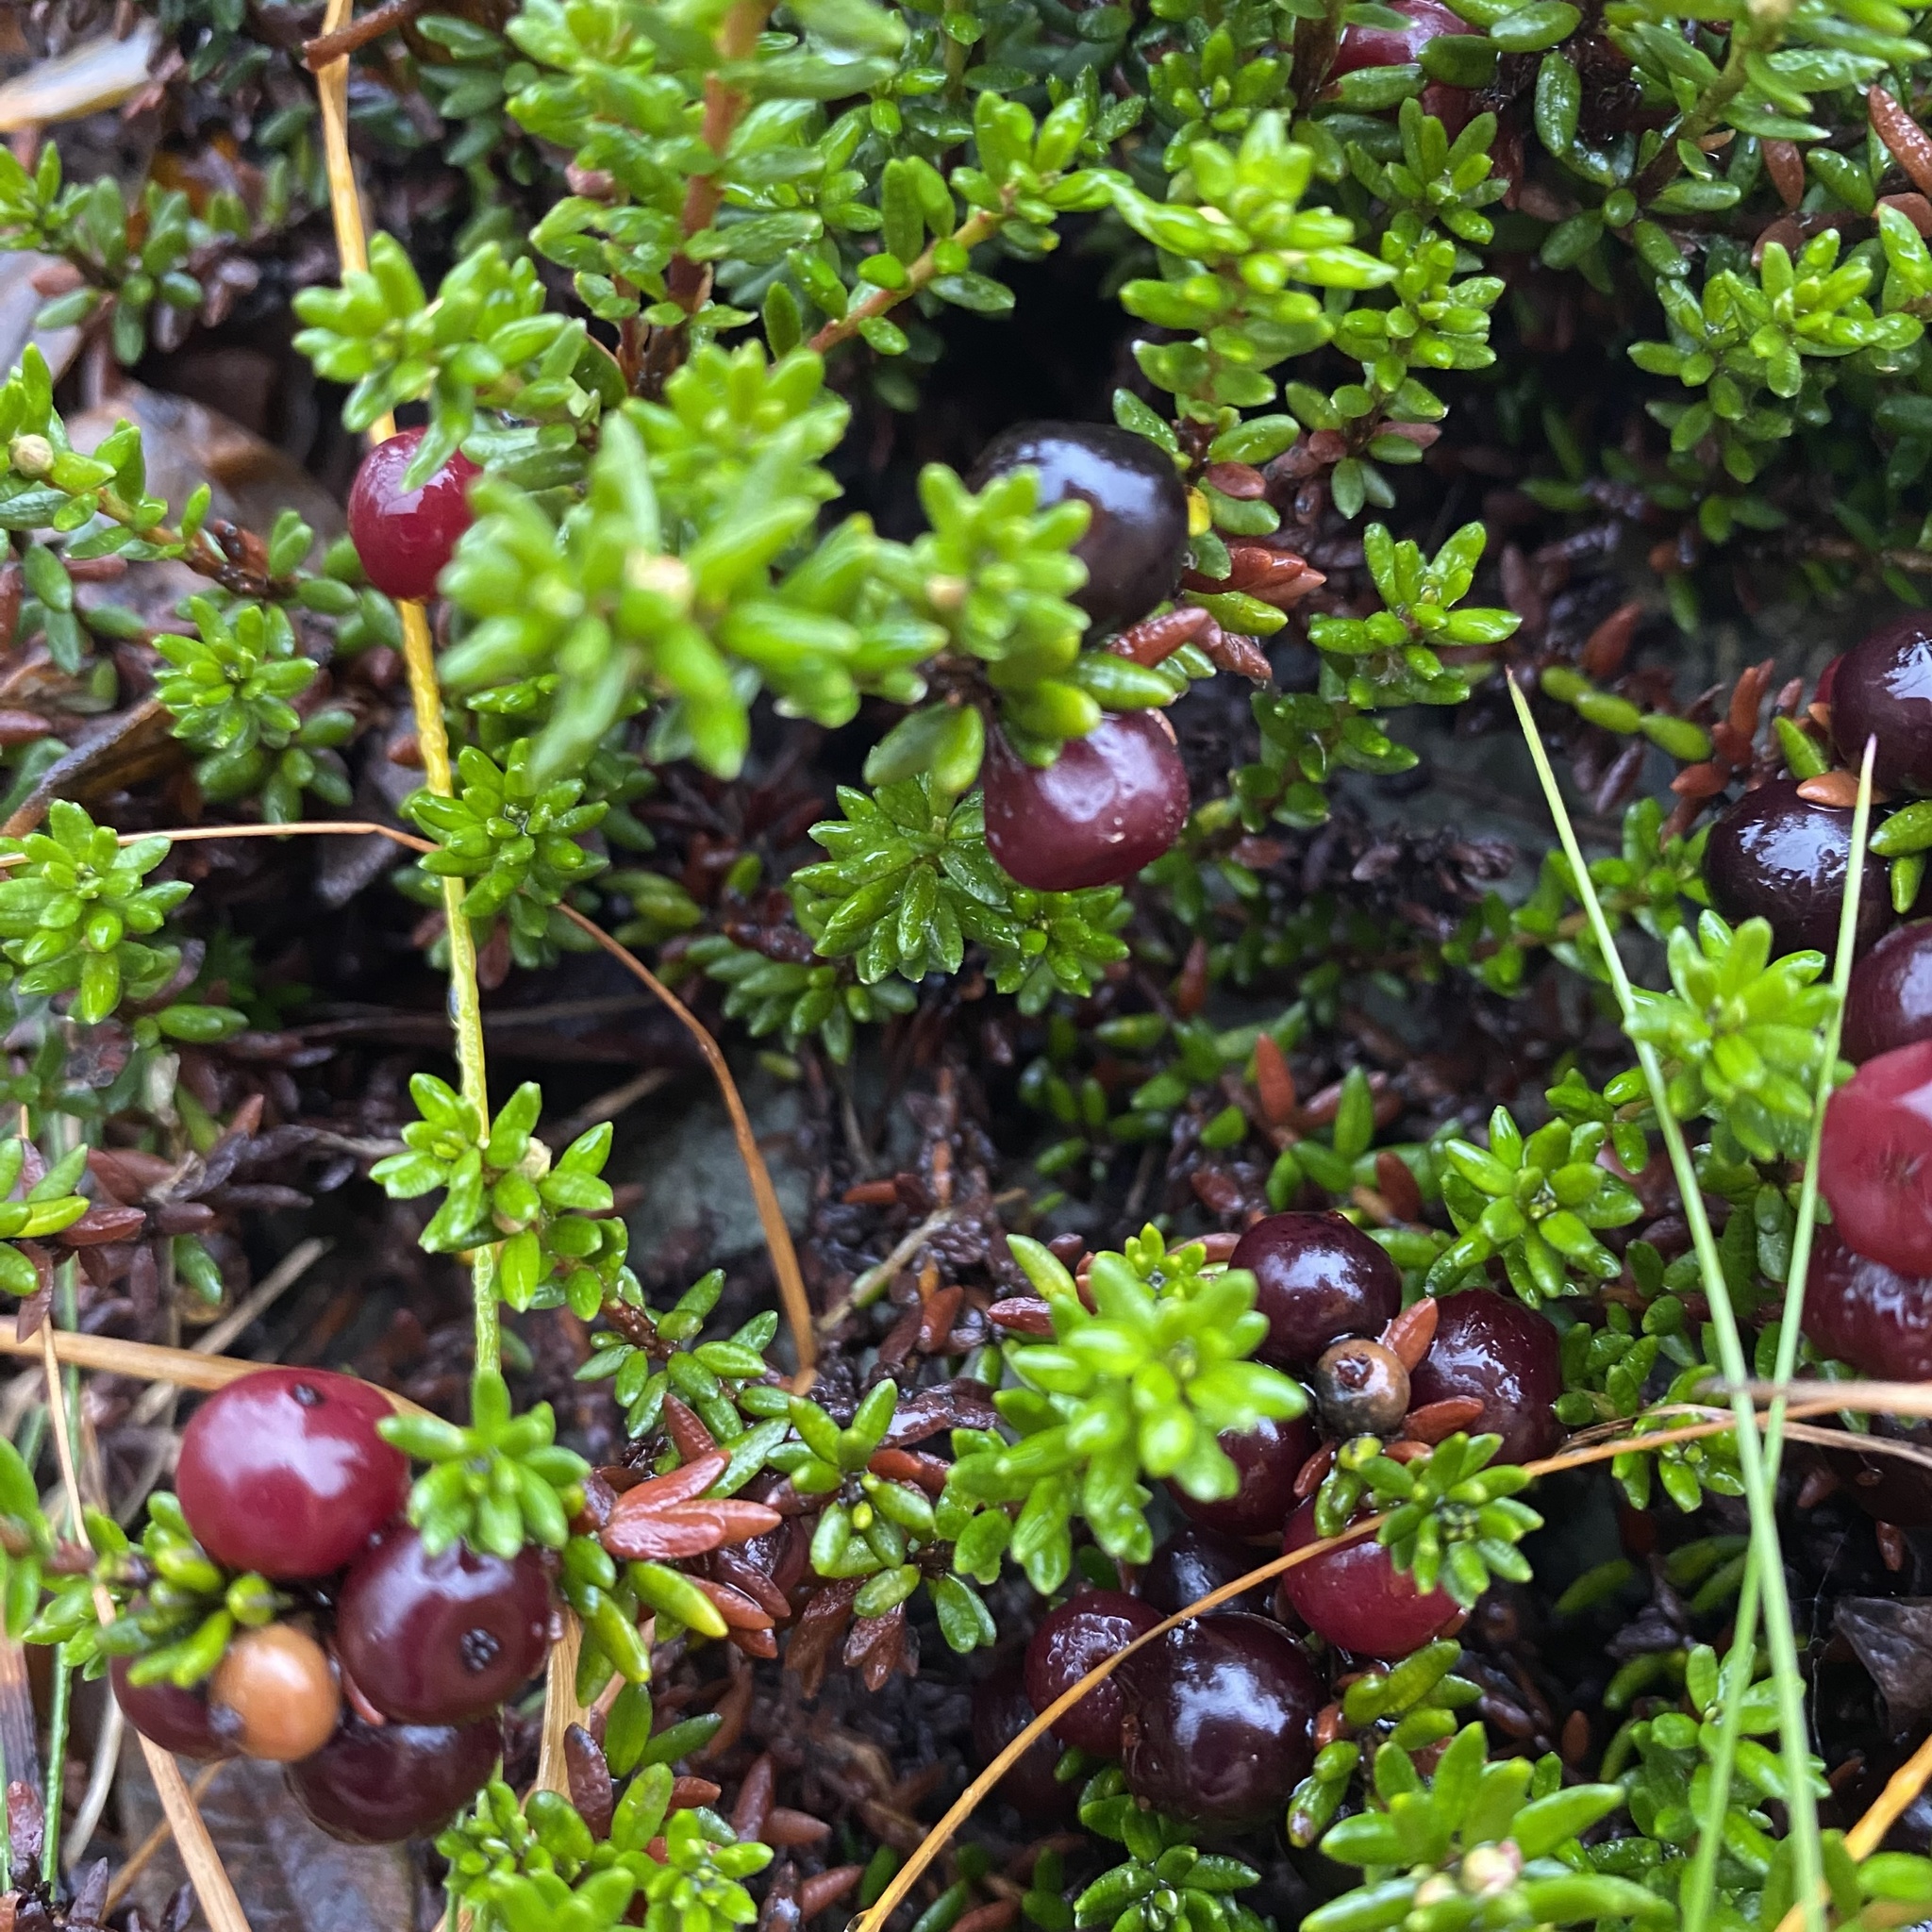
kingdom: Plantae
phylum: Tracheophyta
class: Magnoliopsida
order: Ericales
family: Ericaceae
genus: Empetrum
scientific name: Empetrum nigrum
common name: Black crowberry
